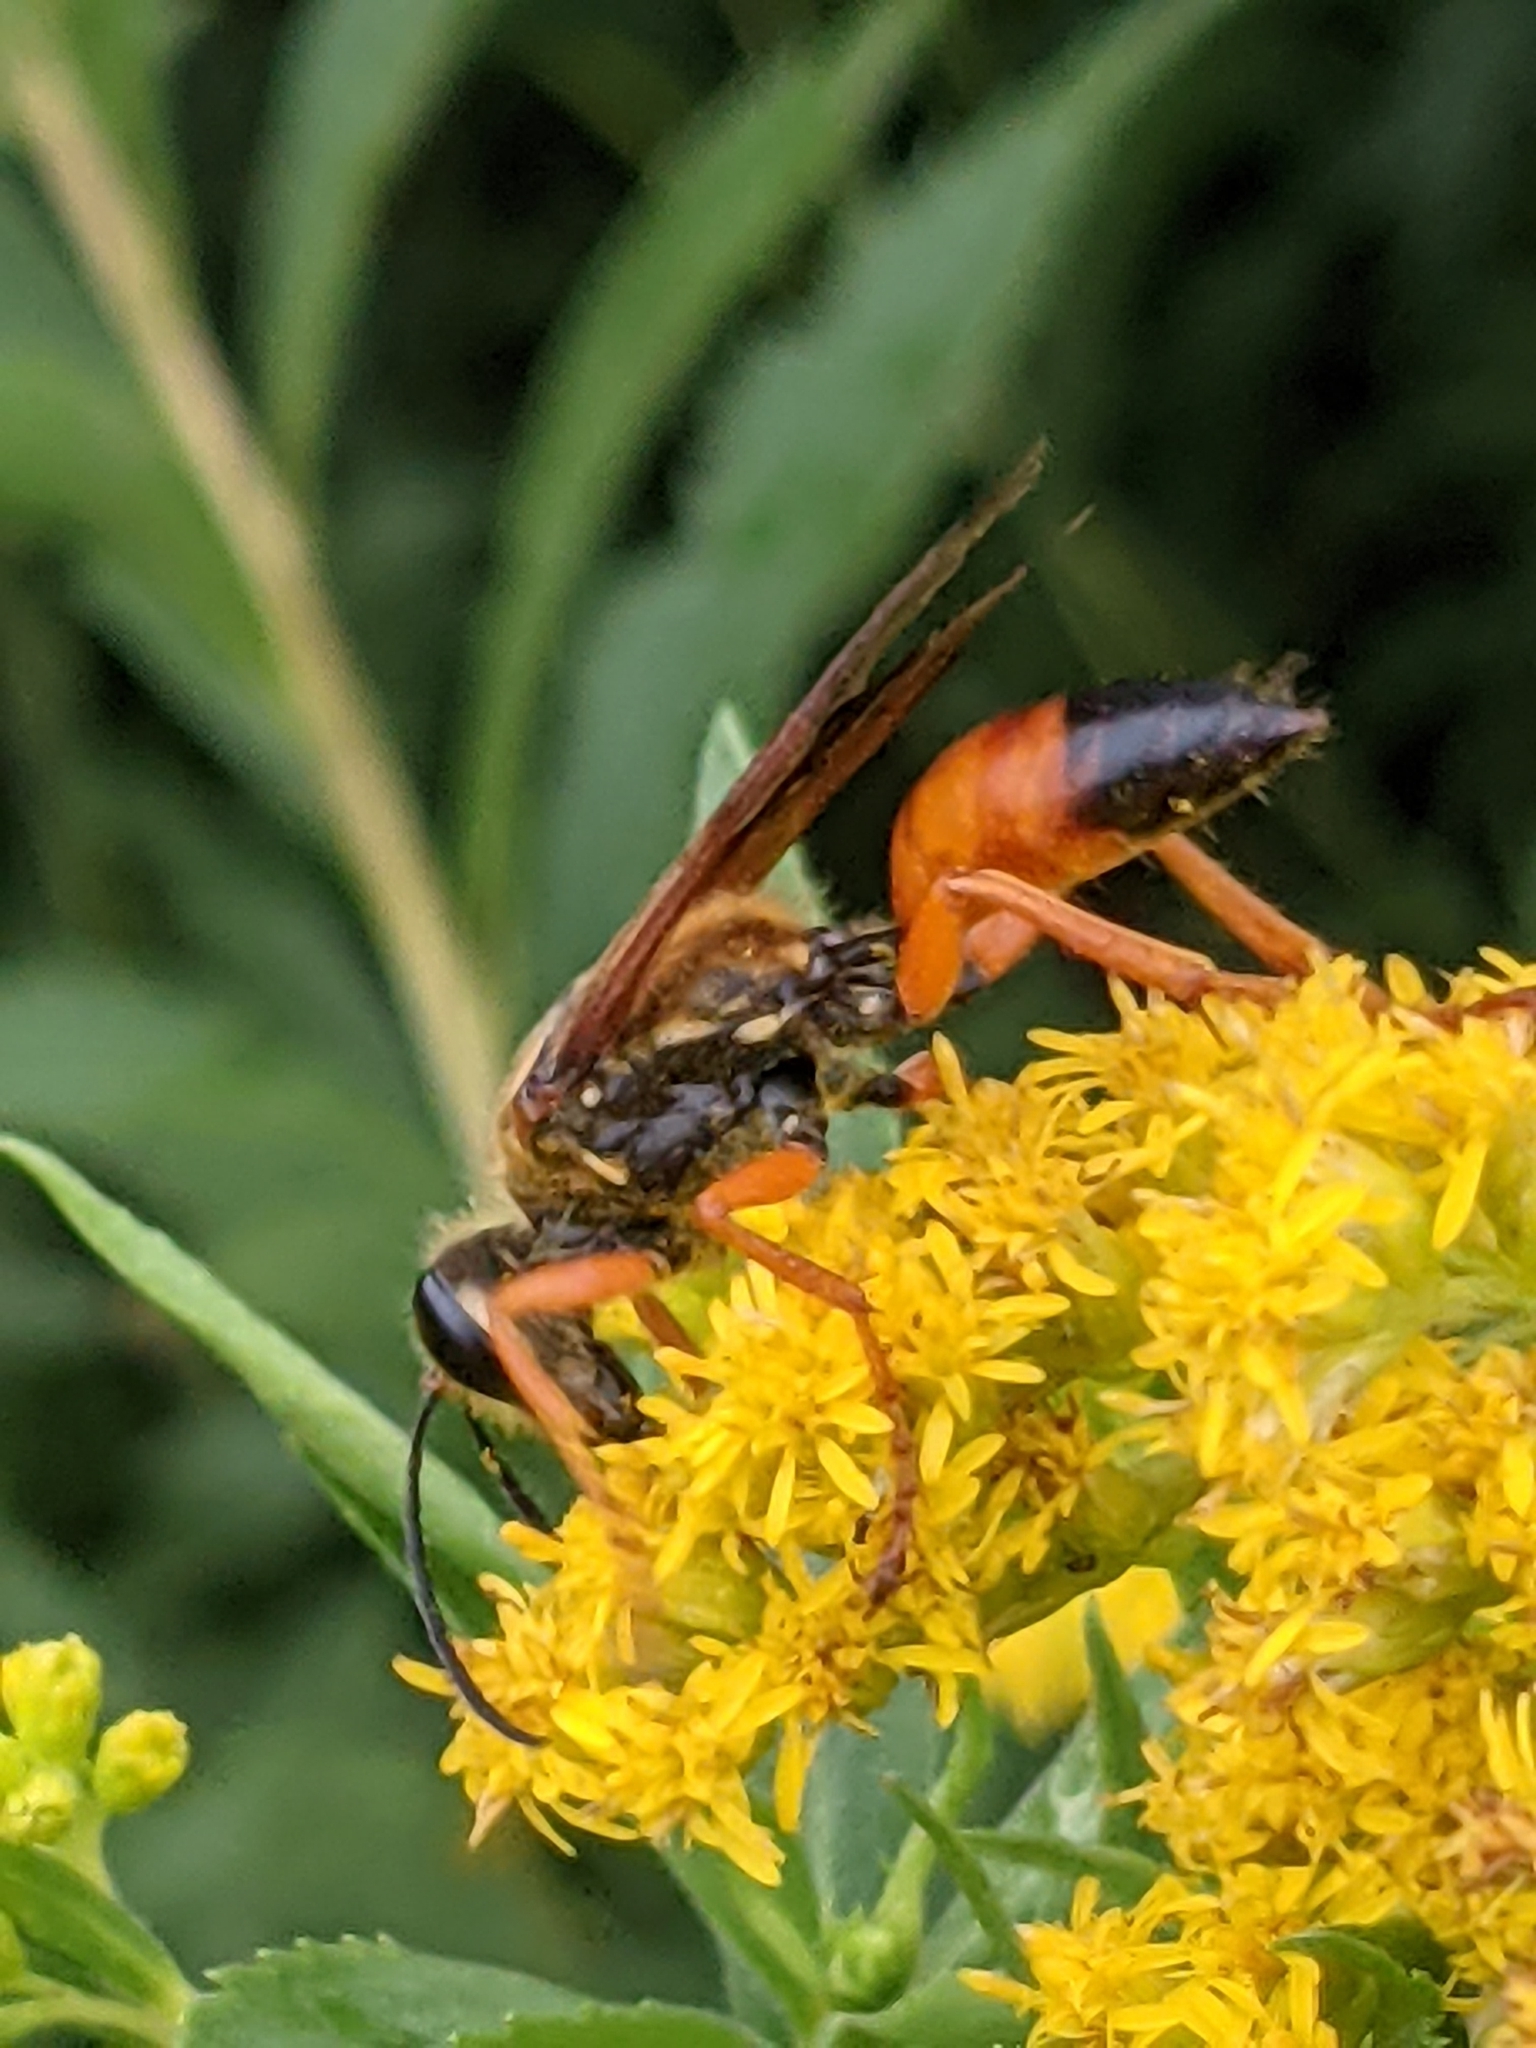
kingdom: Animalia
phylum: Arthropoda
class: Insecta
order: Hymenoptera
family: Sphecidae
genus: Sphex
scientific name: Sphex ichneumoneus
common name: Great golden digger wasp
